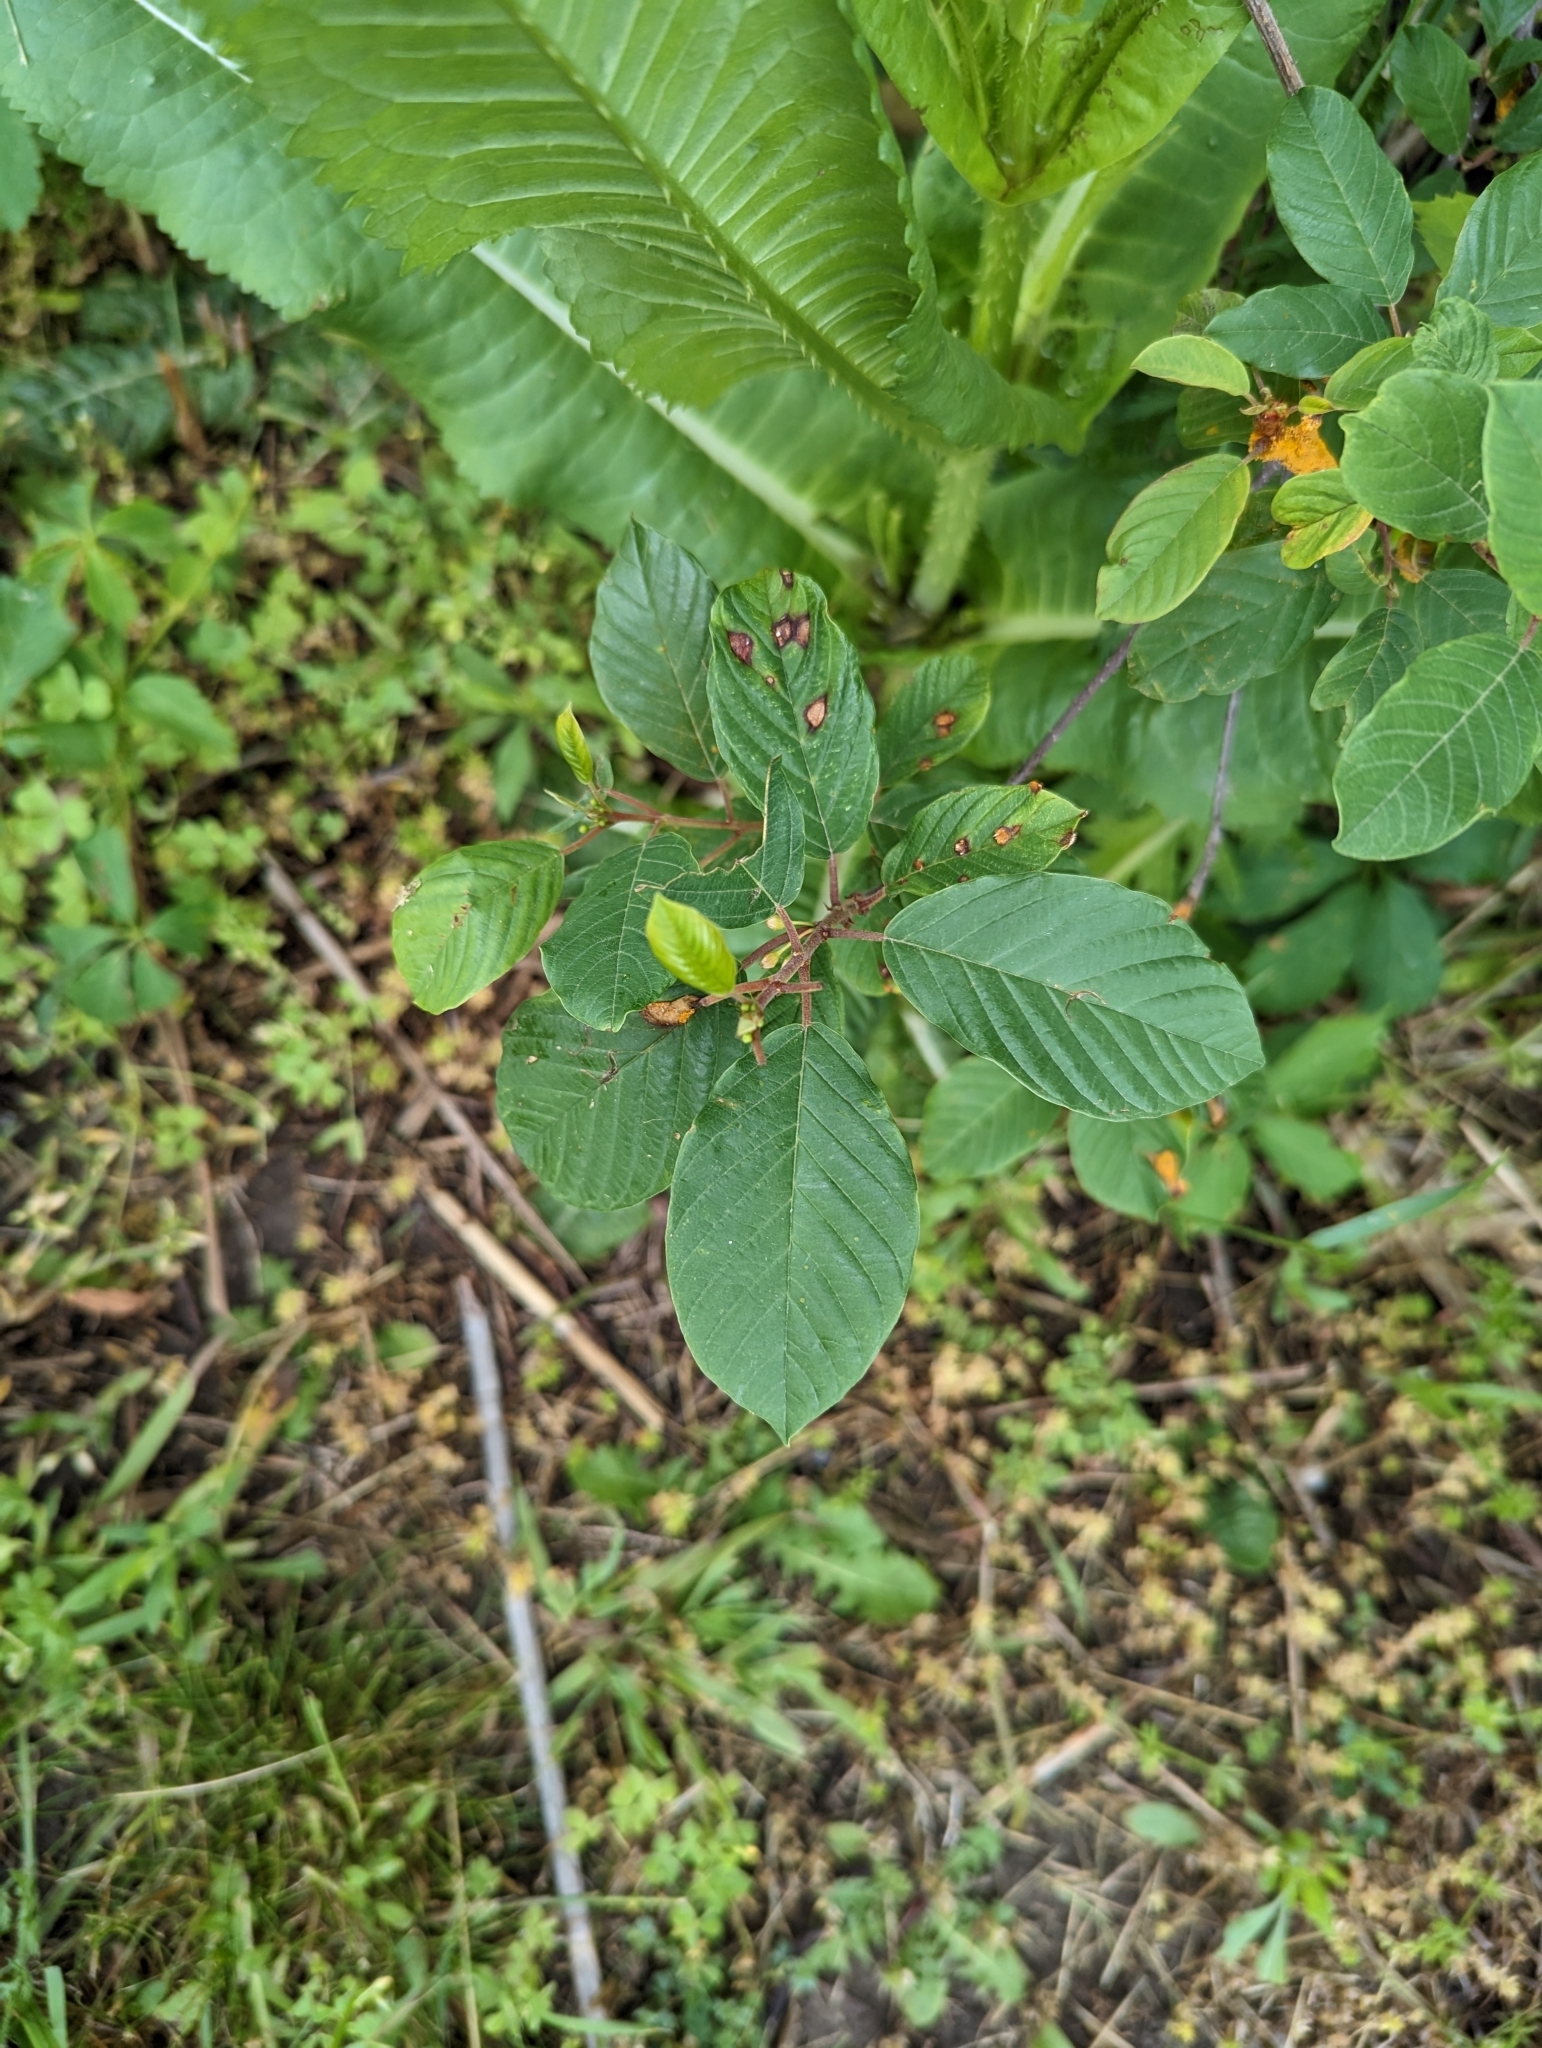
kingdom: Plantae
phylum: Tracheophyta
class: Magnoliopsida
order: Rosales
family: Rhamnaceae
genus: Frangula
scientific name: Frangula alnus
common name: Alder buckthorn
